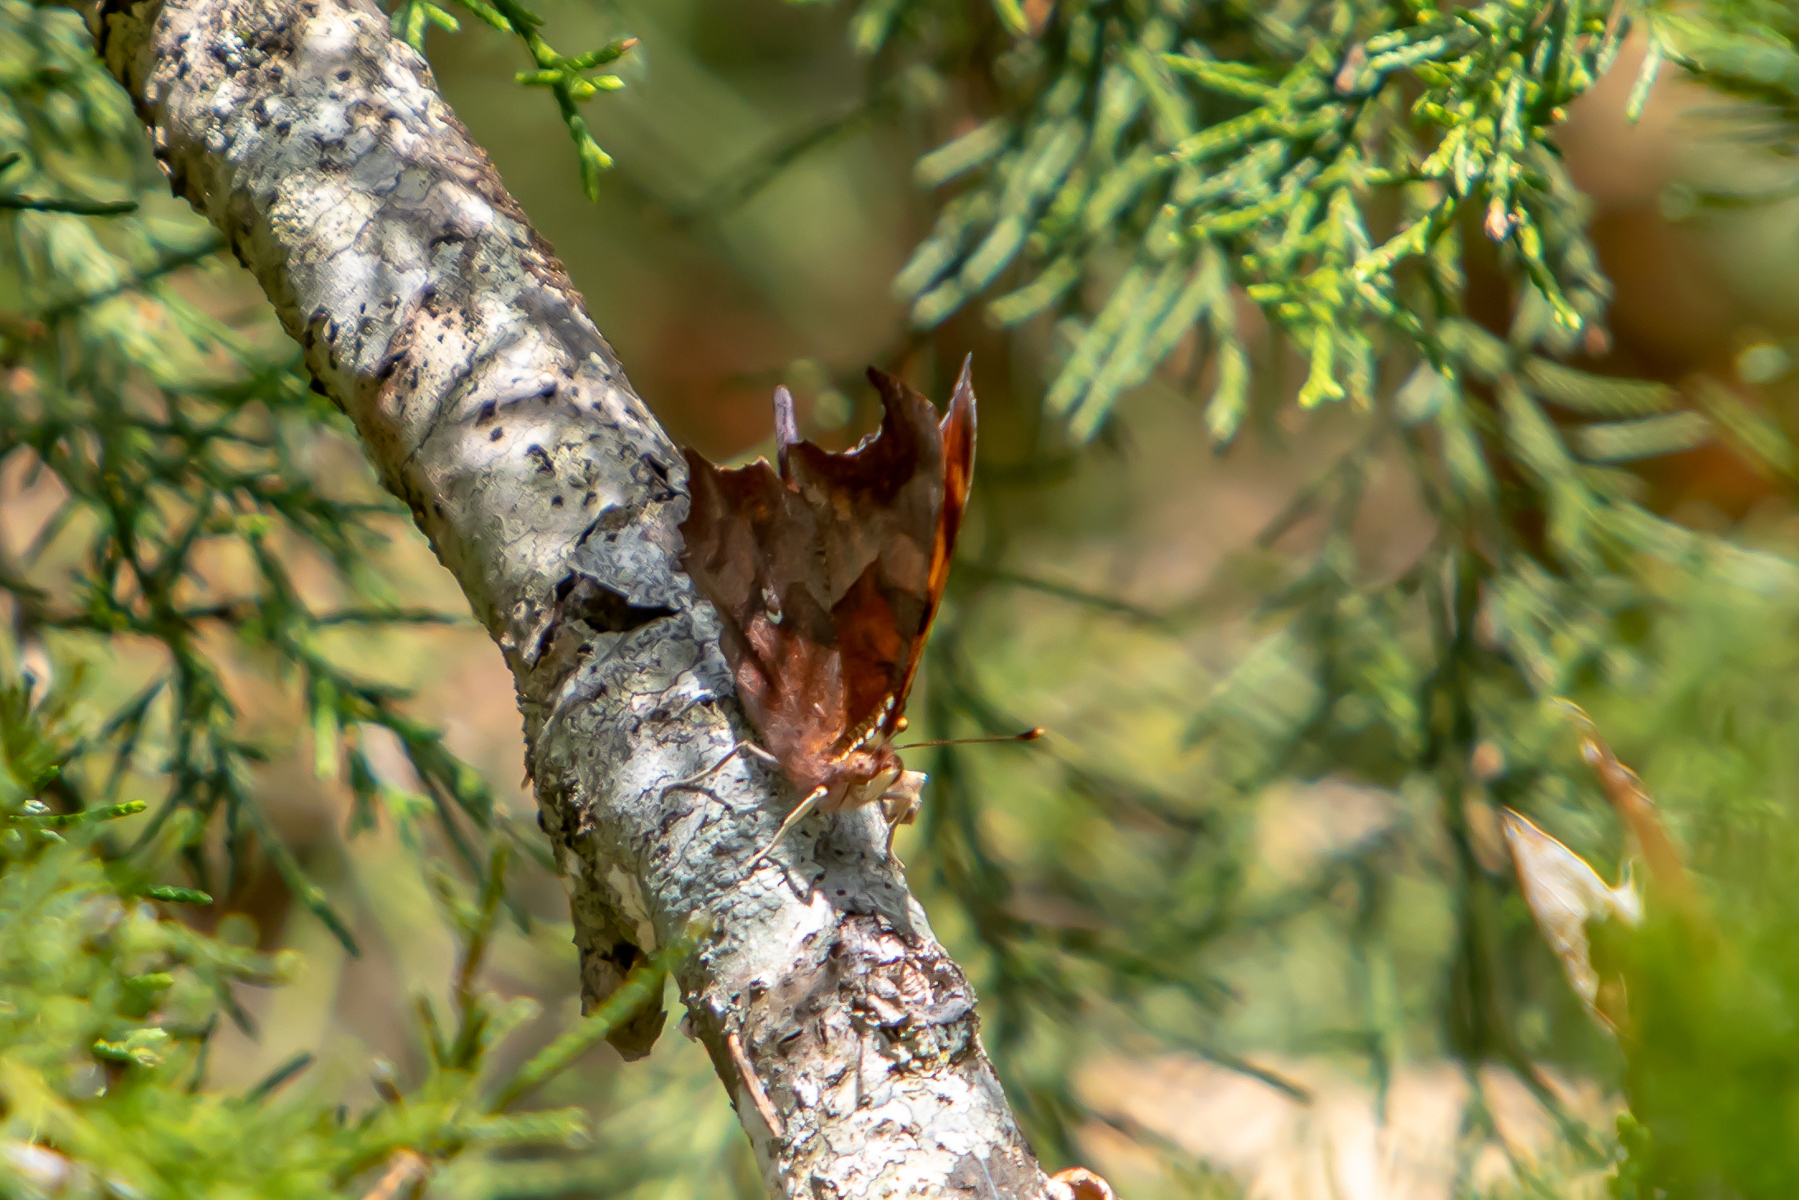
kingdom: Animalia
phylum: Arthropoda
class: Insecta
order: Lepidoptera
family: Nymphalidae
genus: Polygonia
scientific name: Polygonia interrogationis
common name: Question mark
